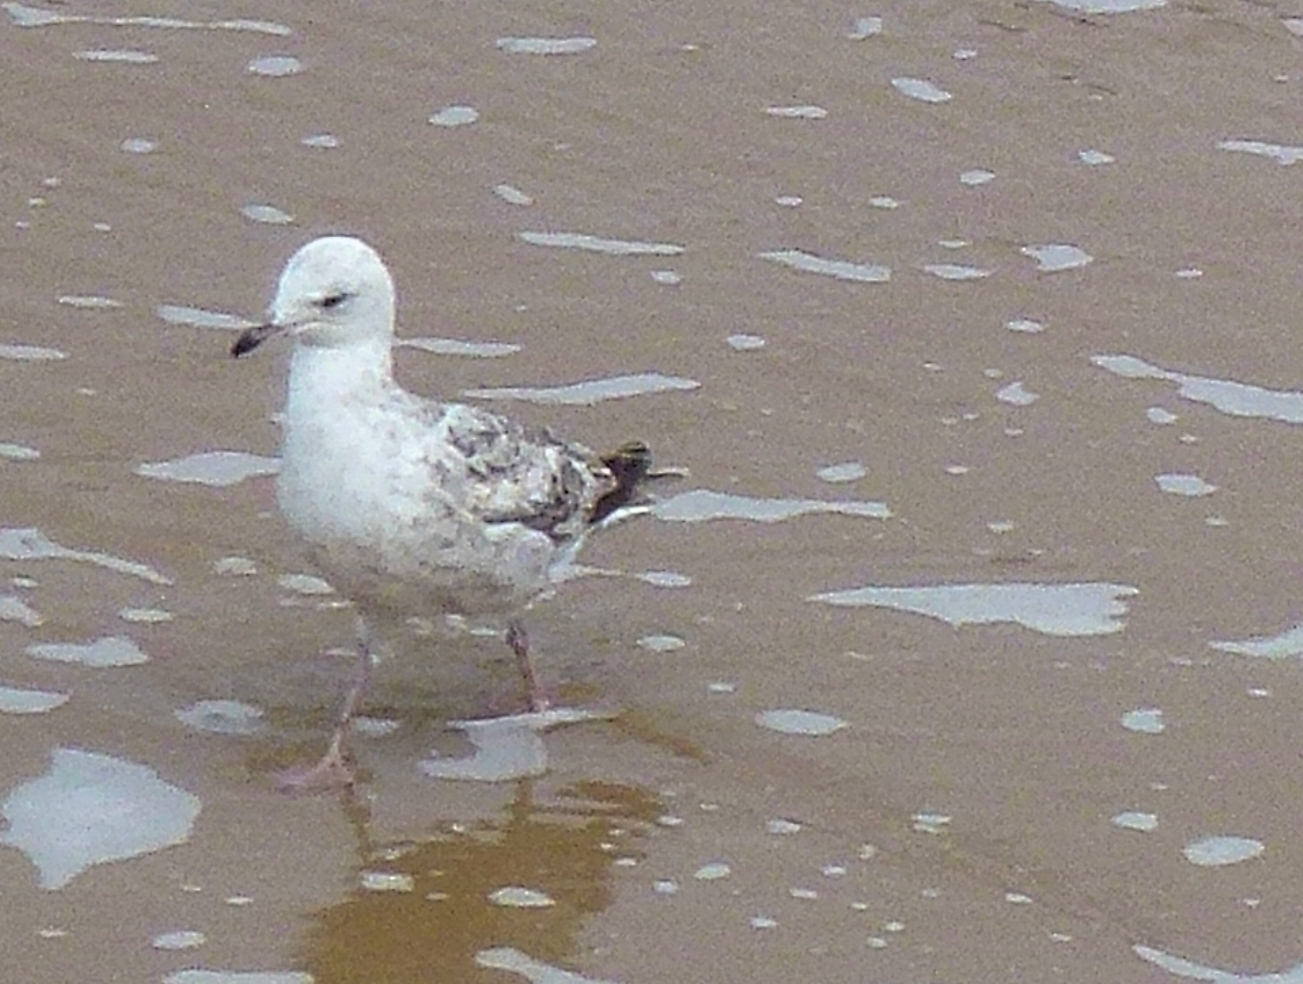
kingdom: Animalia
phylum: Chordata
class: Aves
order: Charadriiformes
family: Laridae
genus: Larus
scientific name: Larus argentatus
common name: Herring gull
